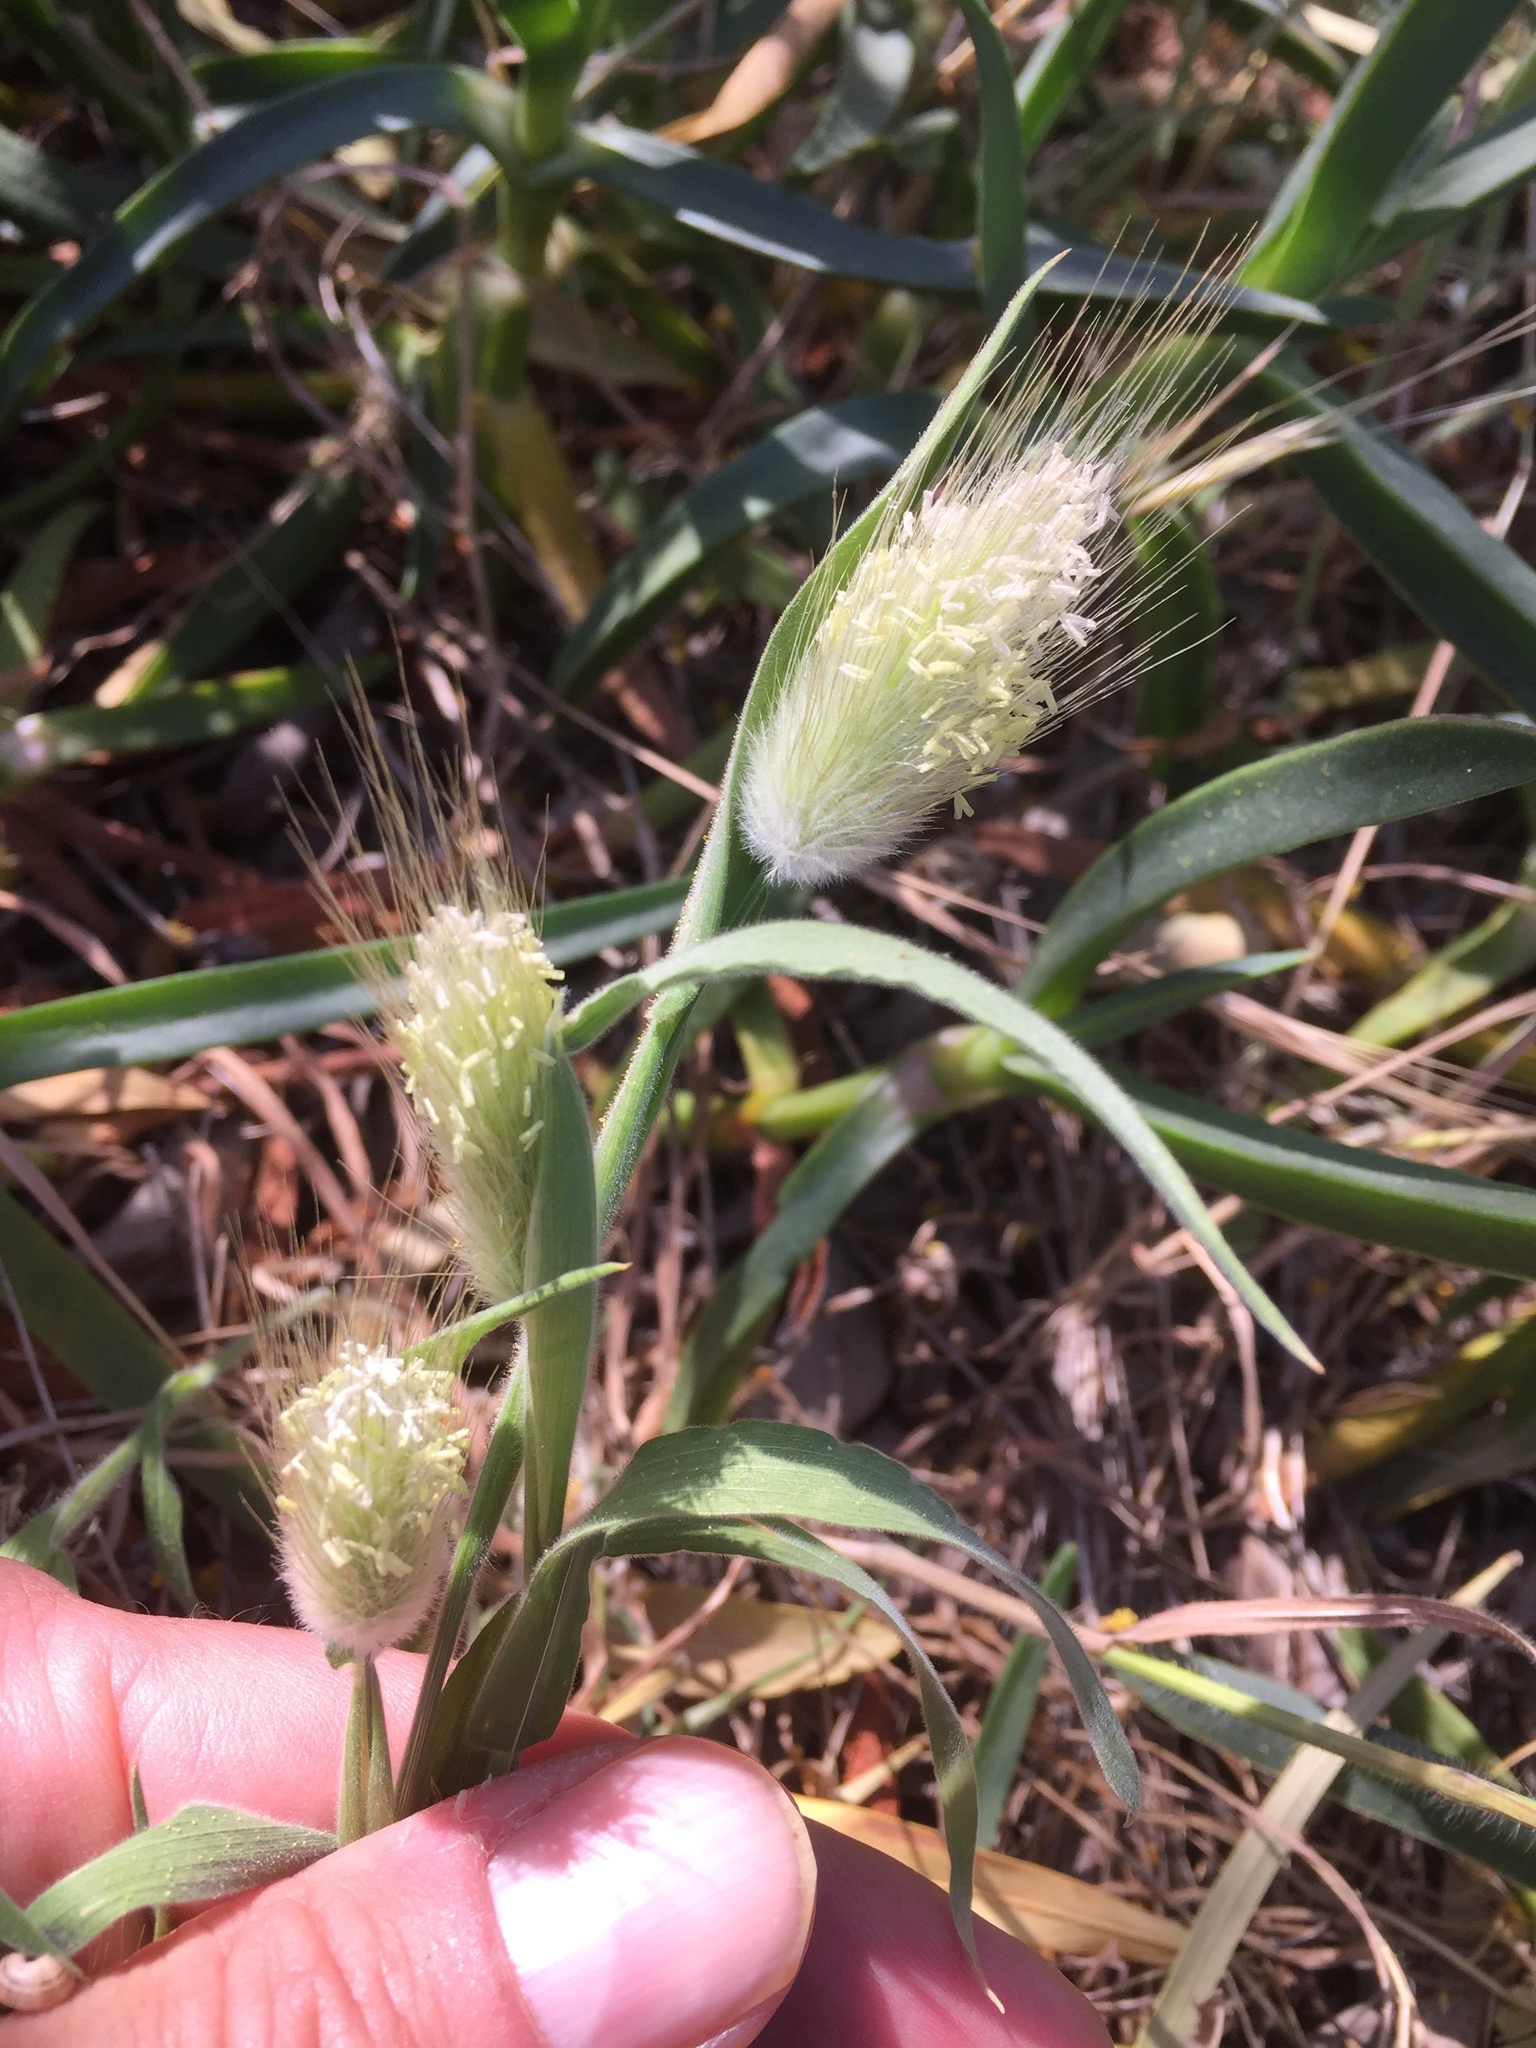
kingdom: Plantae
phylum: Tracheophyta
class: Liliopsida
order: Poales
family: Poaceae
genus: Lagurus
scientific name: Lagurus ovatus
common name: Hare's-tail
